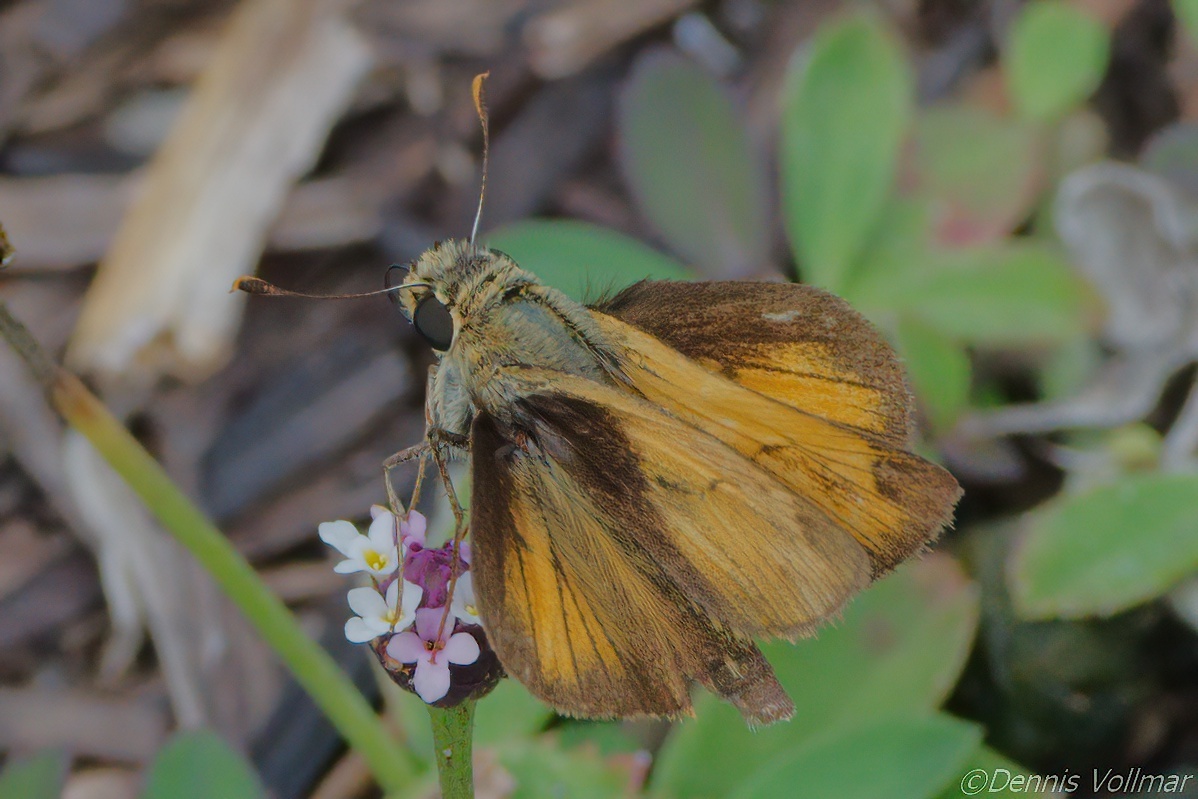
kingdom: Animalia
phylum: Arthropoda
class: Insecta
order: Lepidoptera
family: Hesperiidae
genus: Polites
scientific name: Polites vibex
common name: Whirlabout
